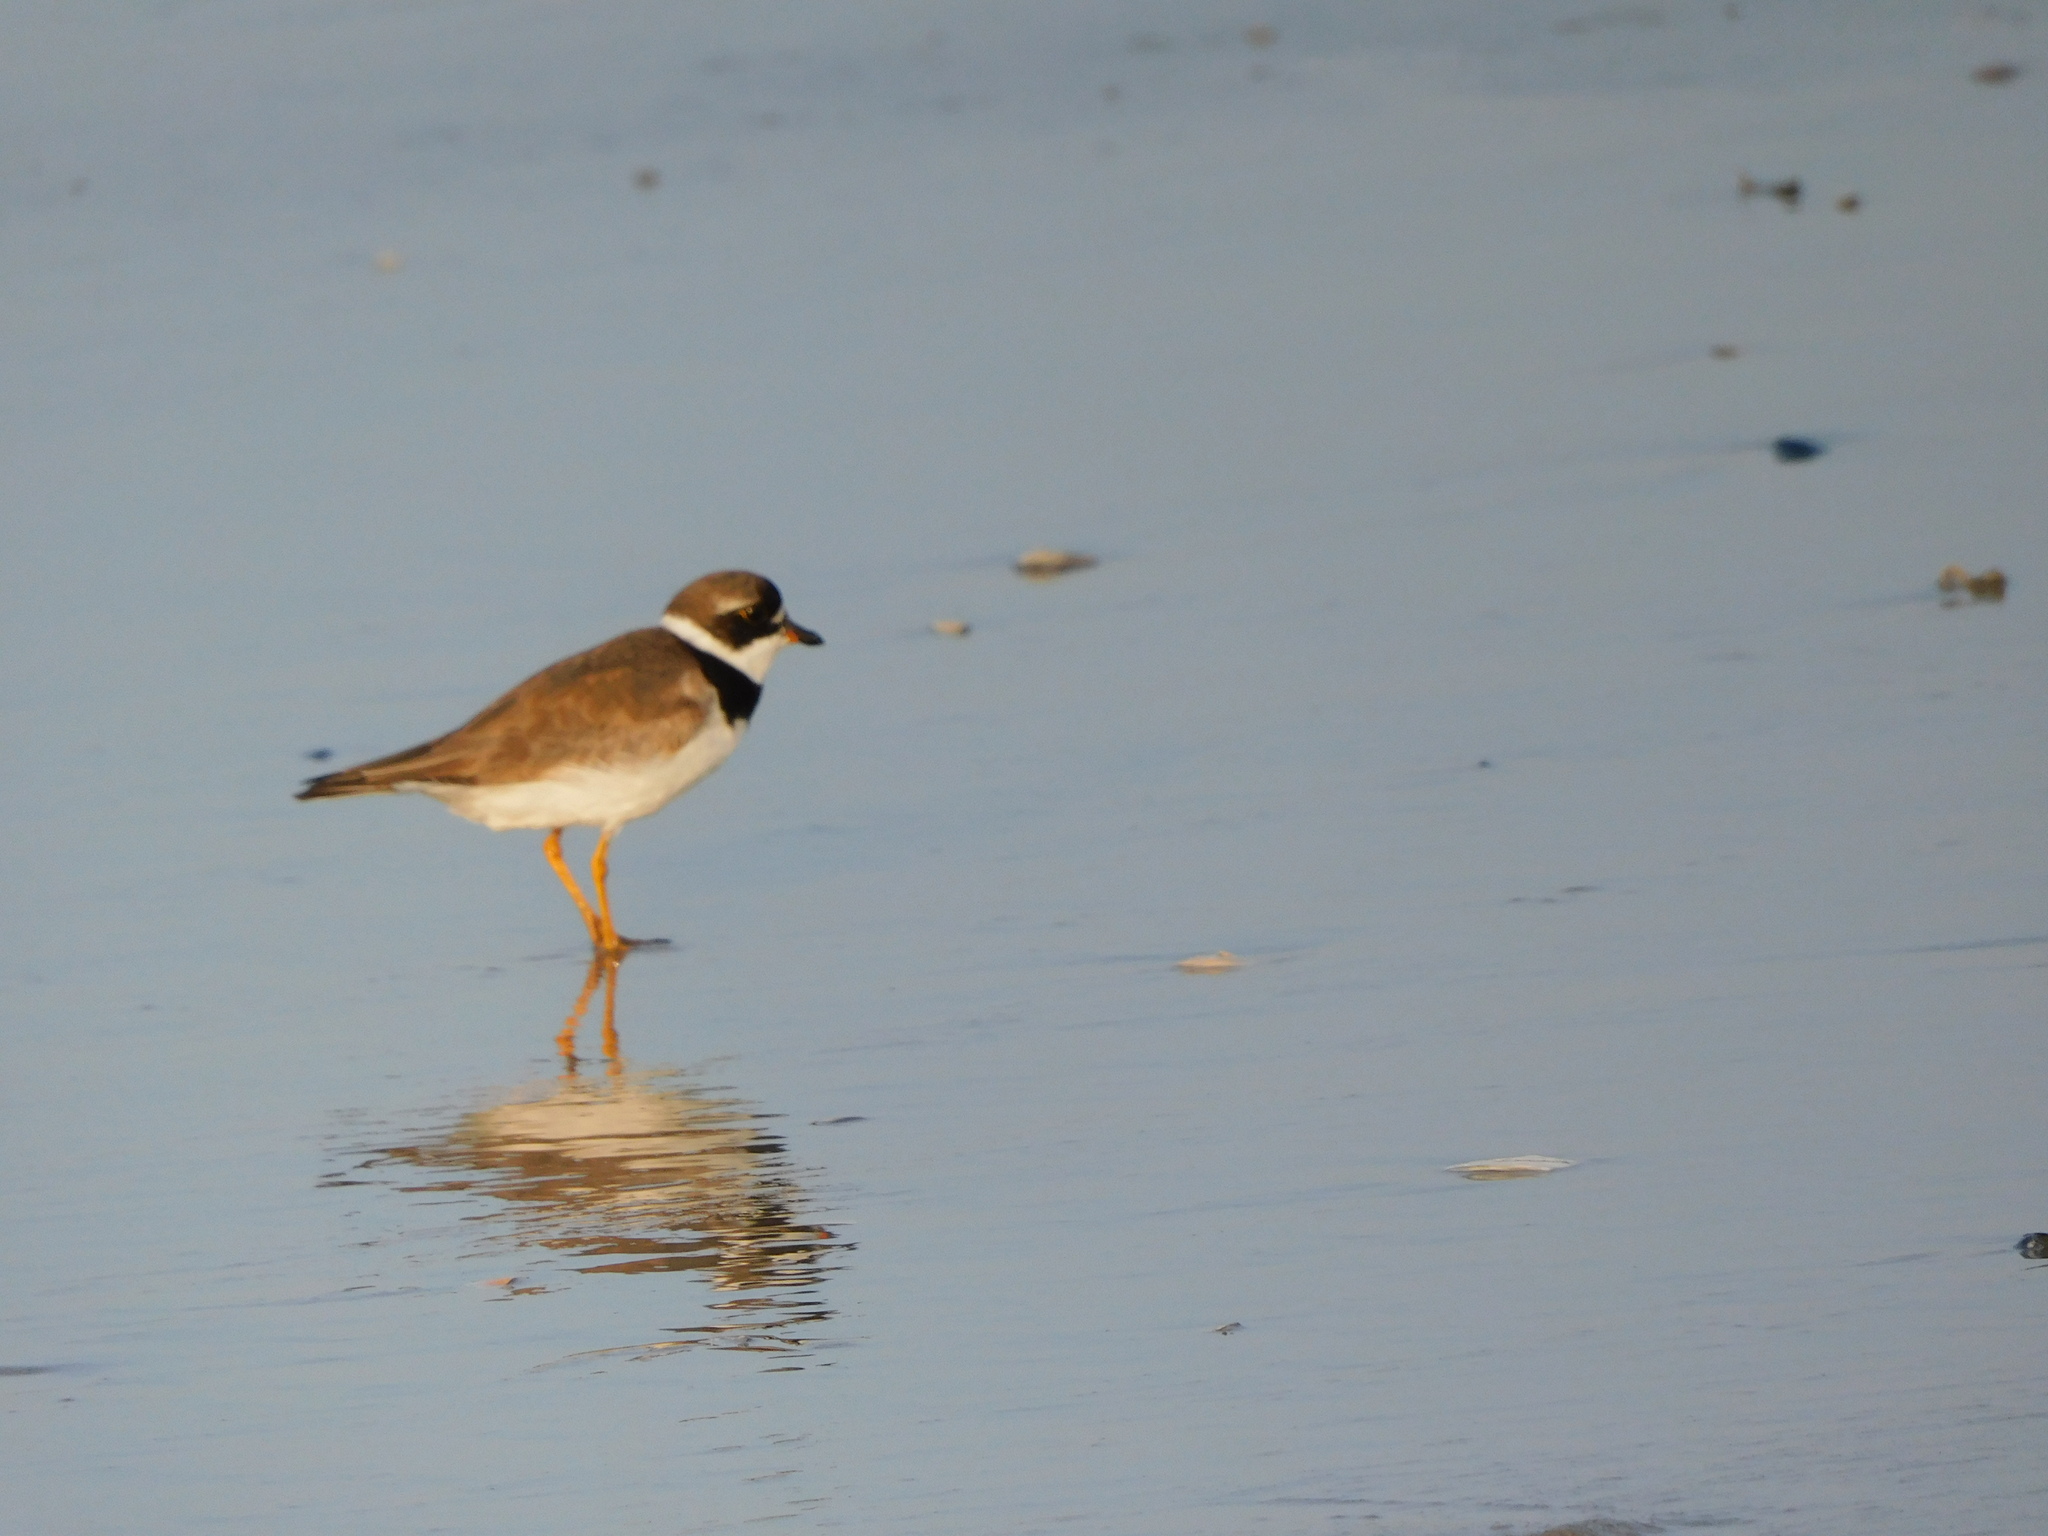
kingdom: Animalia
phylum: Chordata
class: Aves
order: Charadriiformes
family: Charadriidae
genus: Charadrius
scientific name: Charadrius semipalmatus
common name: Semipalmated plover
